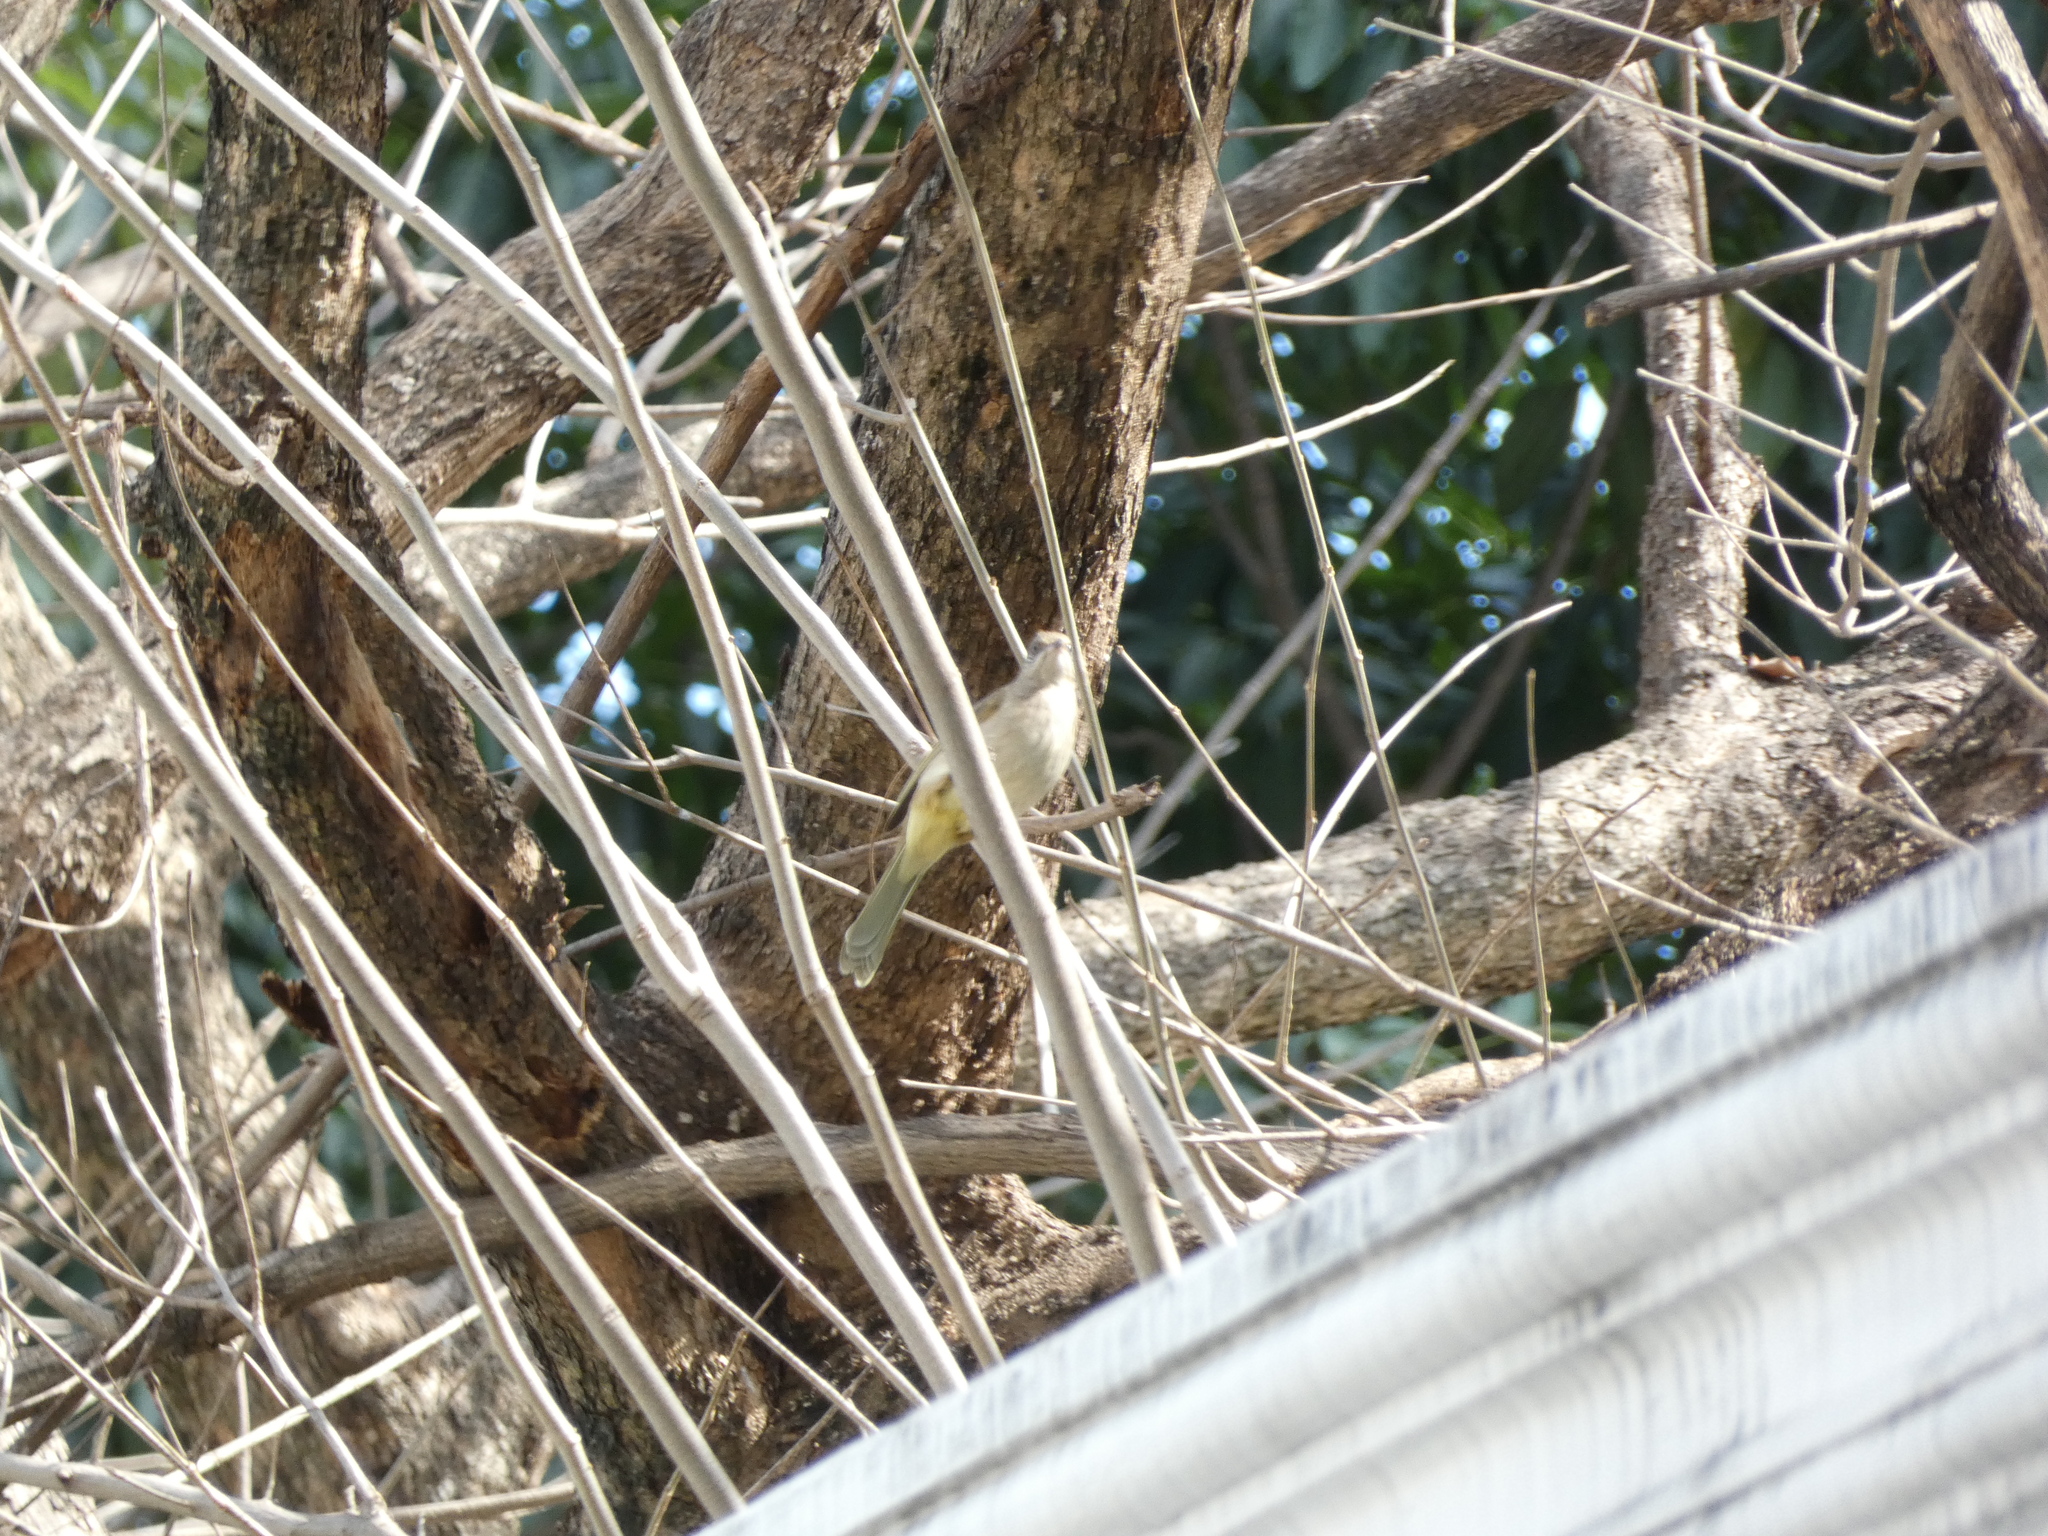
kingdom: Animalia
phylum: Chordata
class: Aves
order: Passeriformes
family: Pycnonotidae
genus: Pycnonotus
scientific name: Pycnonotus blanfordi
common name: Streak-eared bulbul
